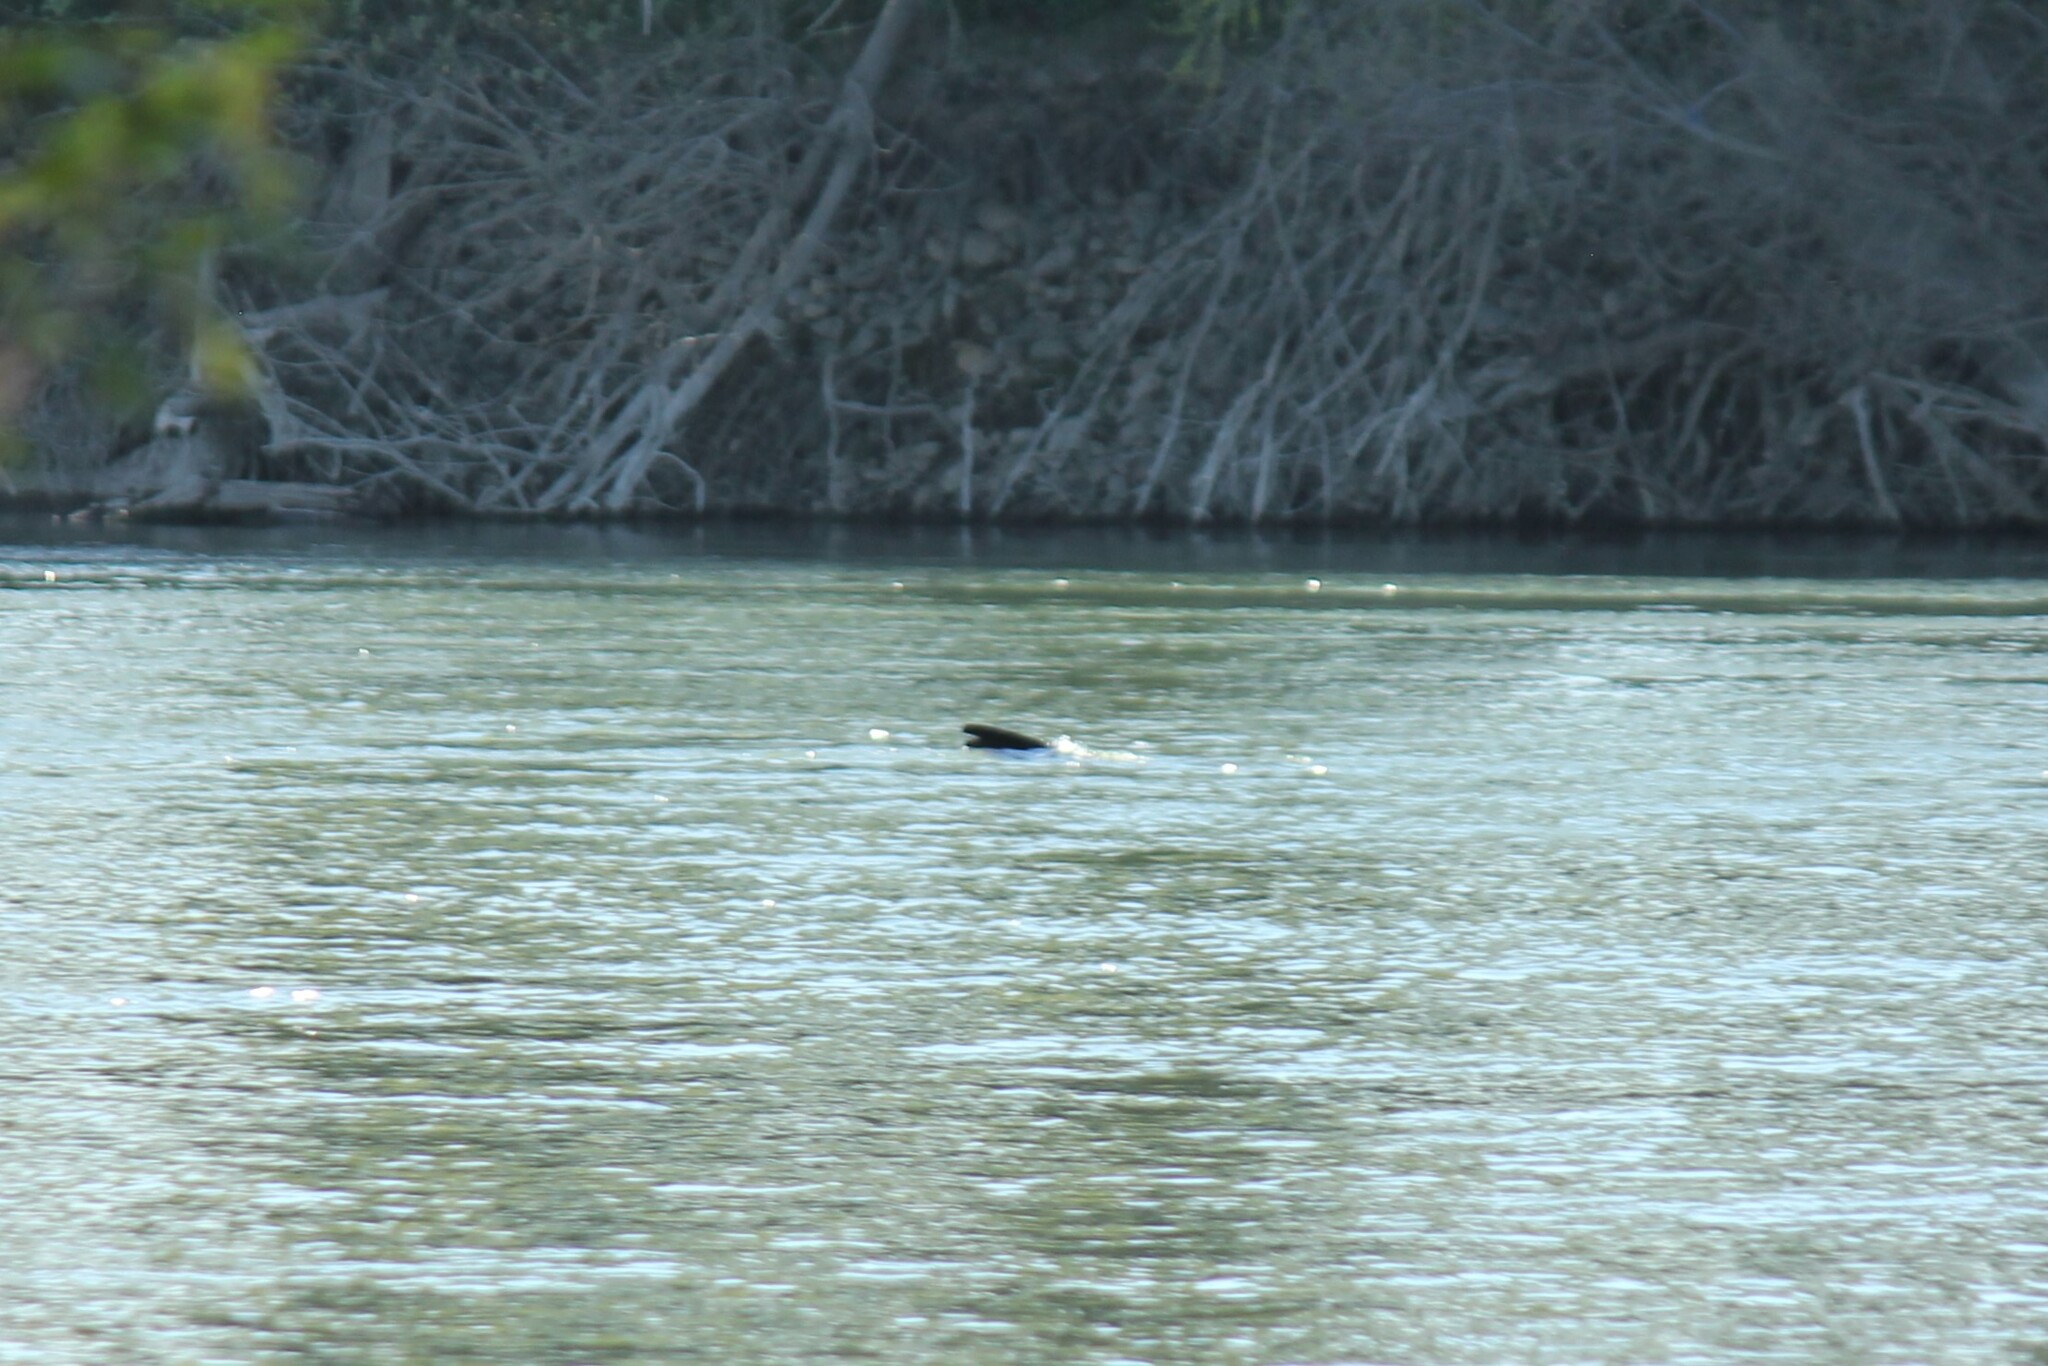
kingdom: Animalia
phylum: Chordata
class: Mammalia
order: Carnivora
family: Otariidae
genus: Zalophus
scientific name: Zalophus californianus
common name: California sea lion
